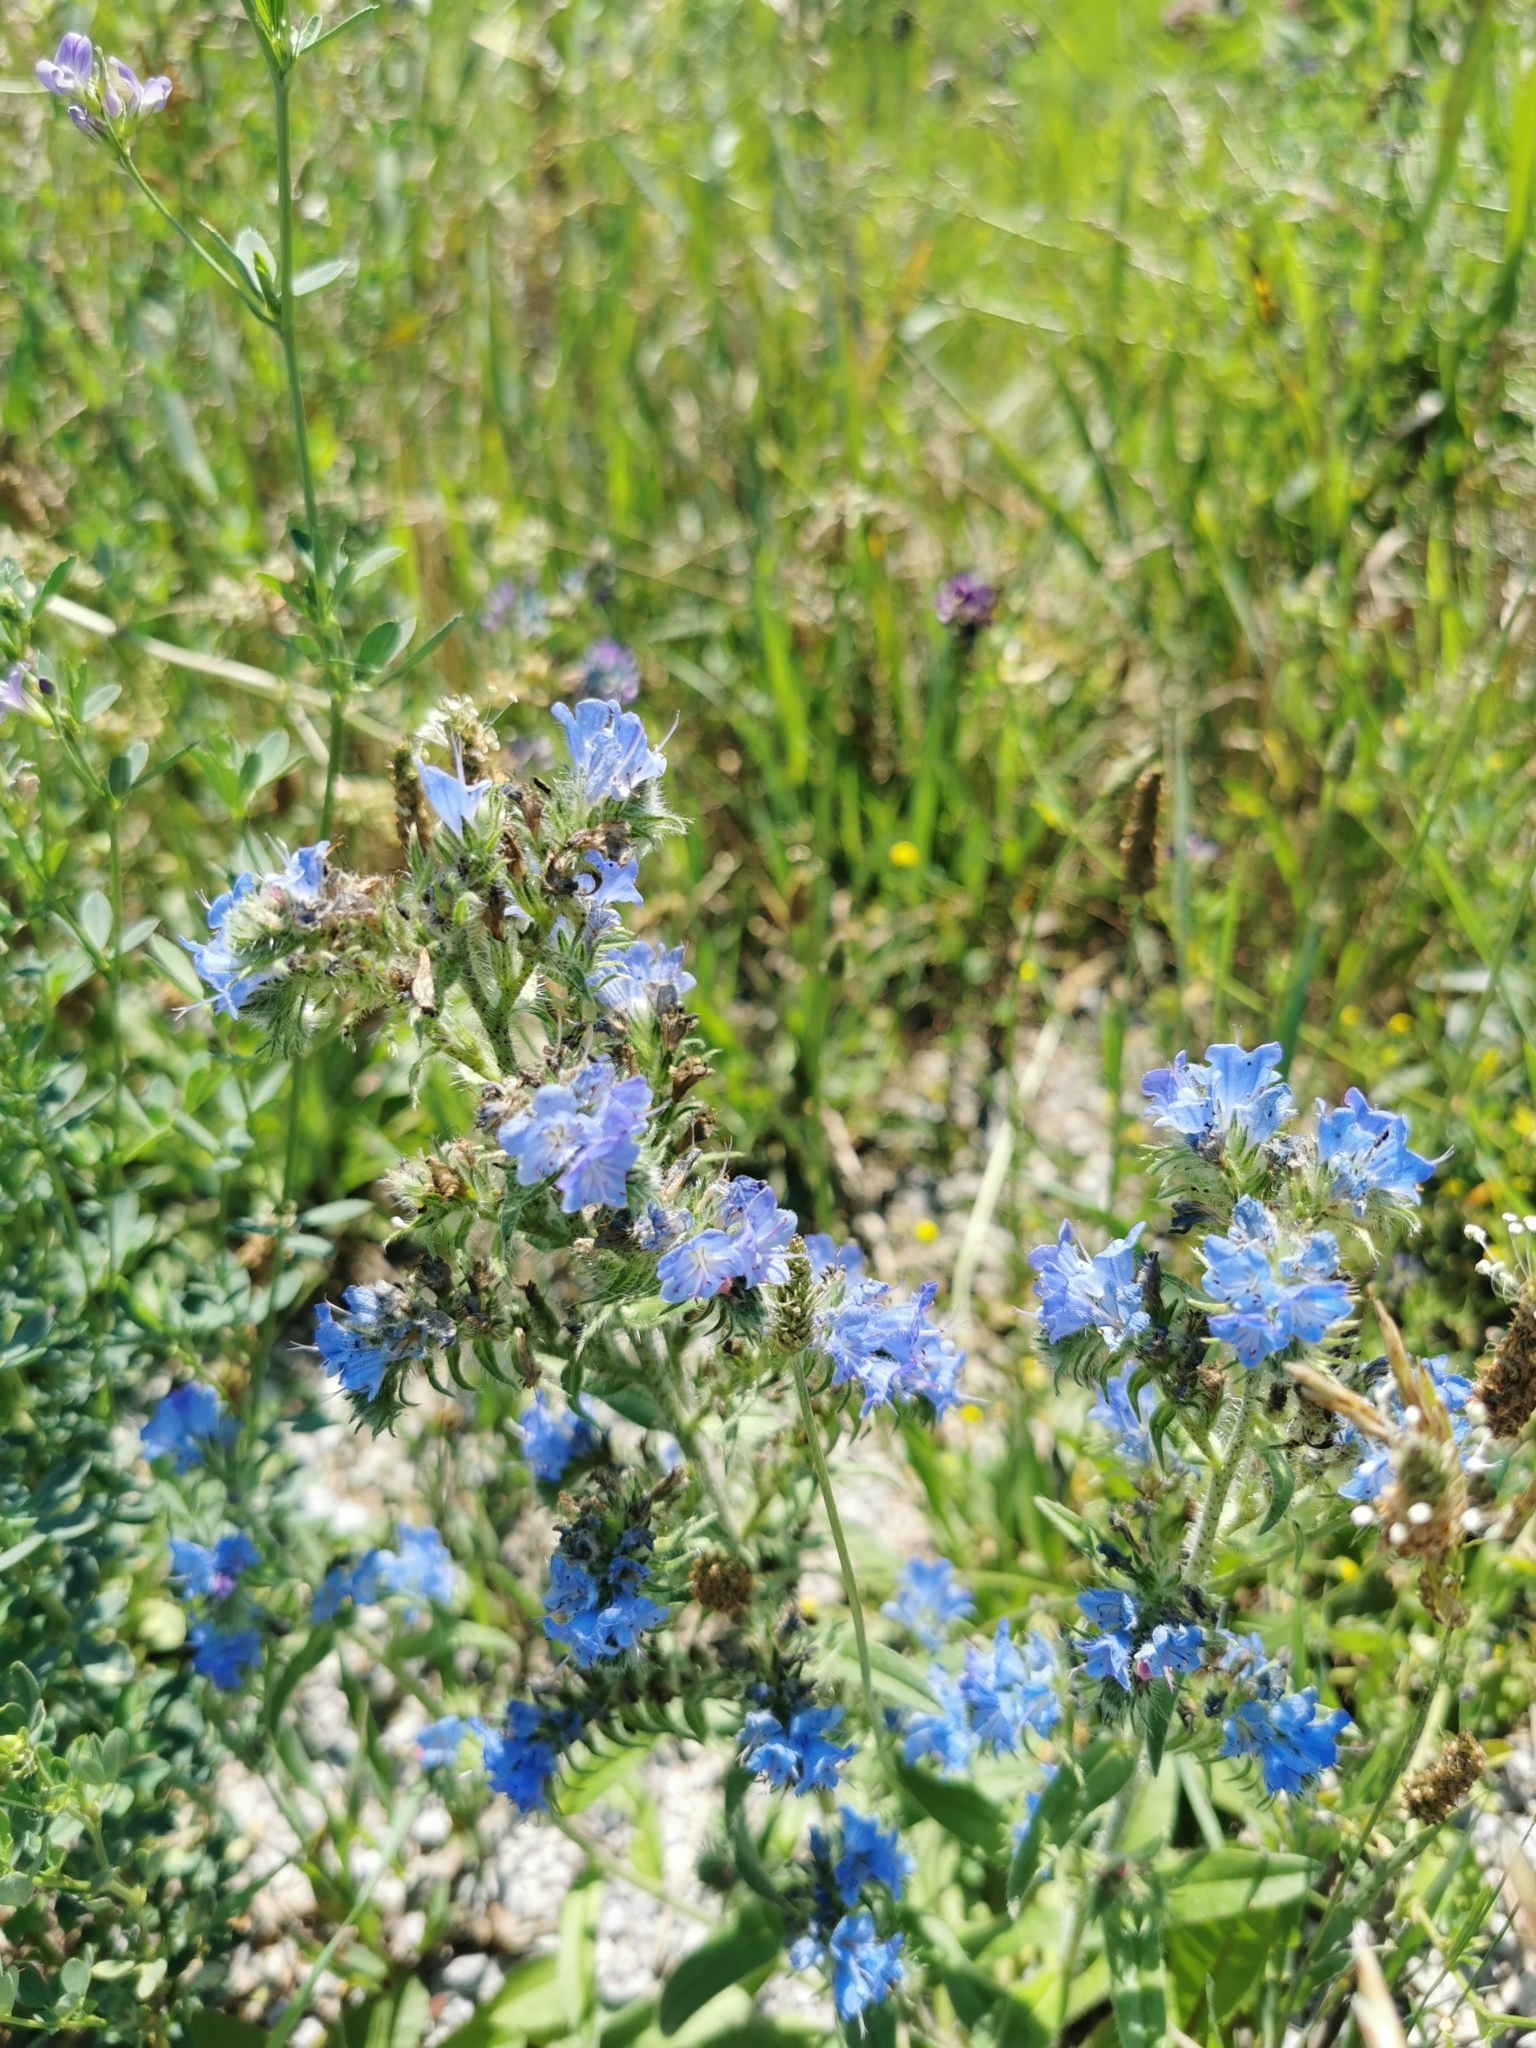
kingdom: Plantae
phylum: Tracheophyta
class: Magnoliopsida
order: Boraginales
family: Boraginaceae
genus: Echium
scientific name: Echium vulgare
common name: Common viper's bugloss
